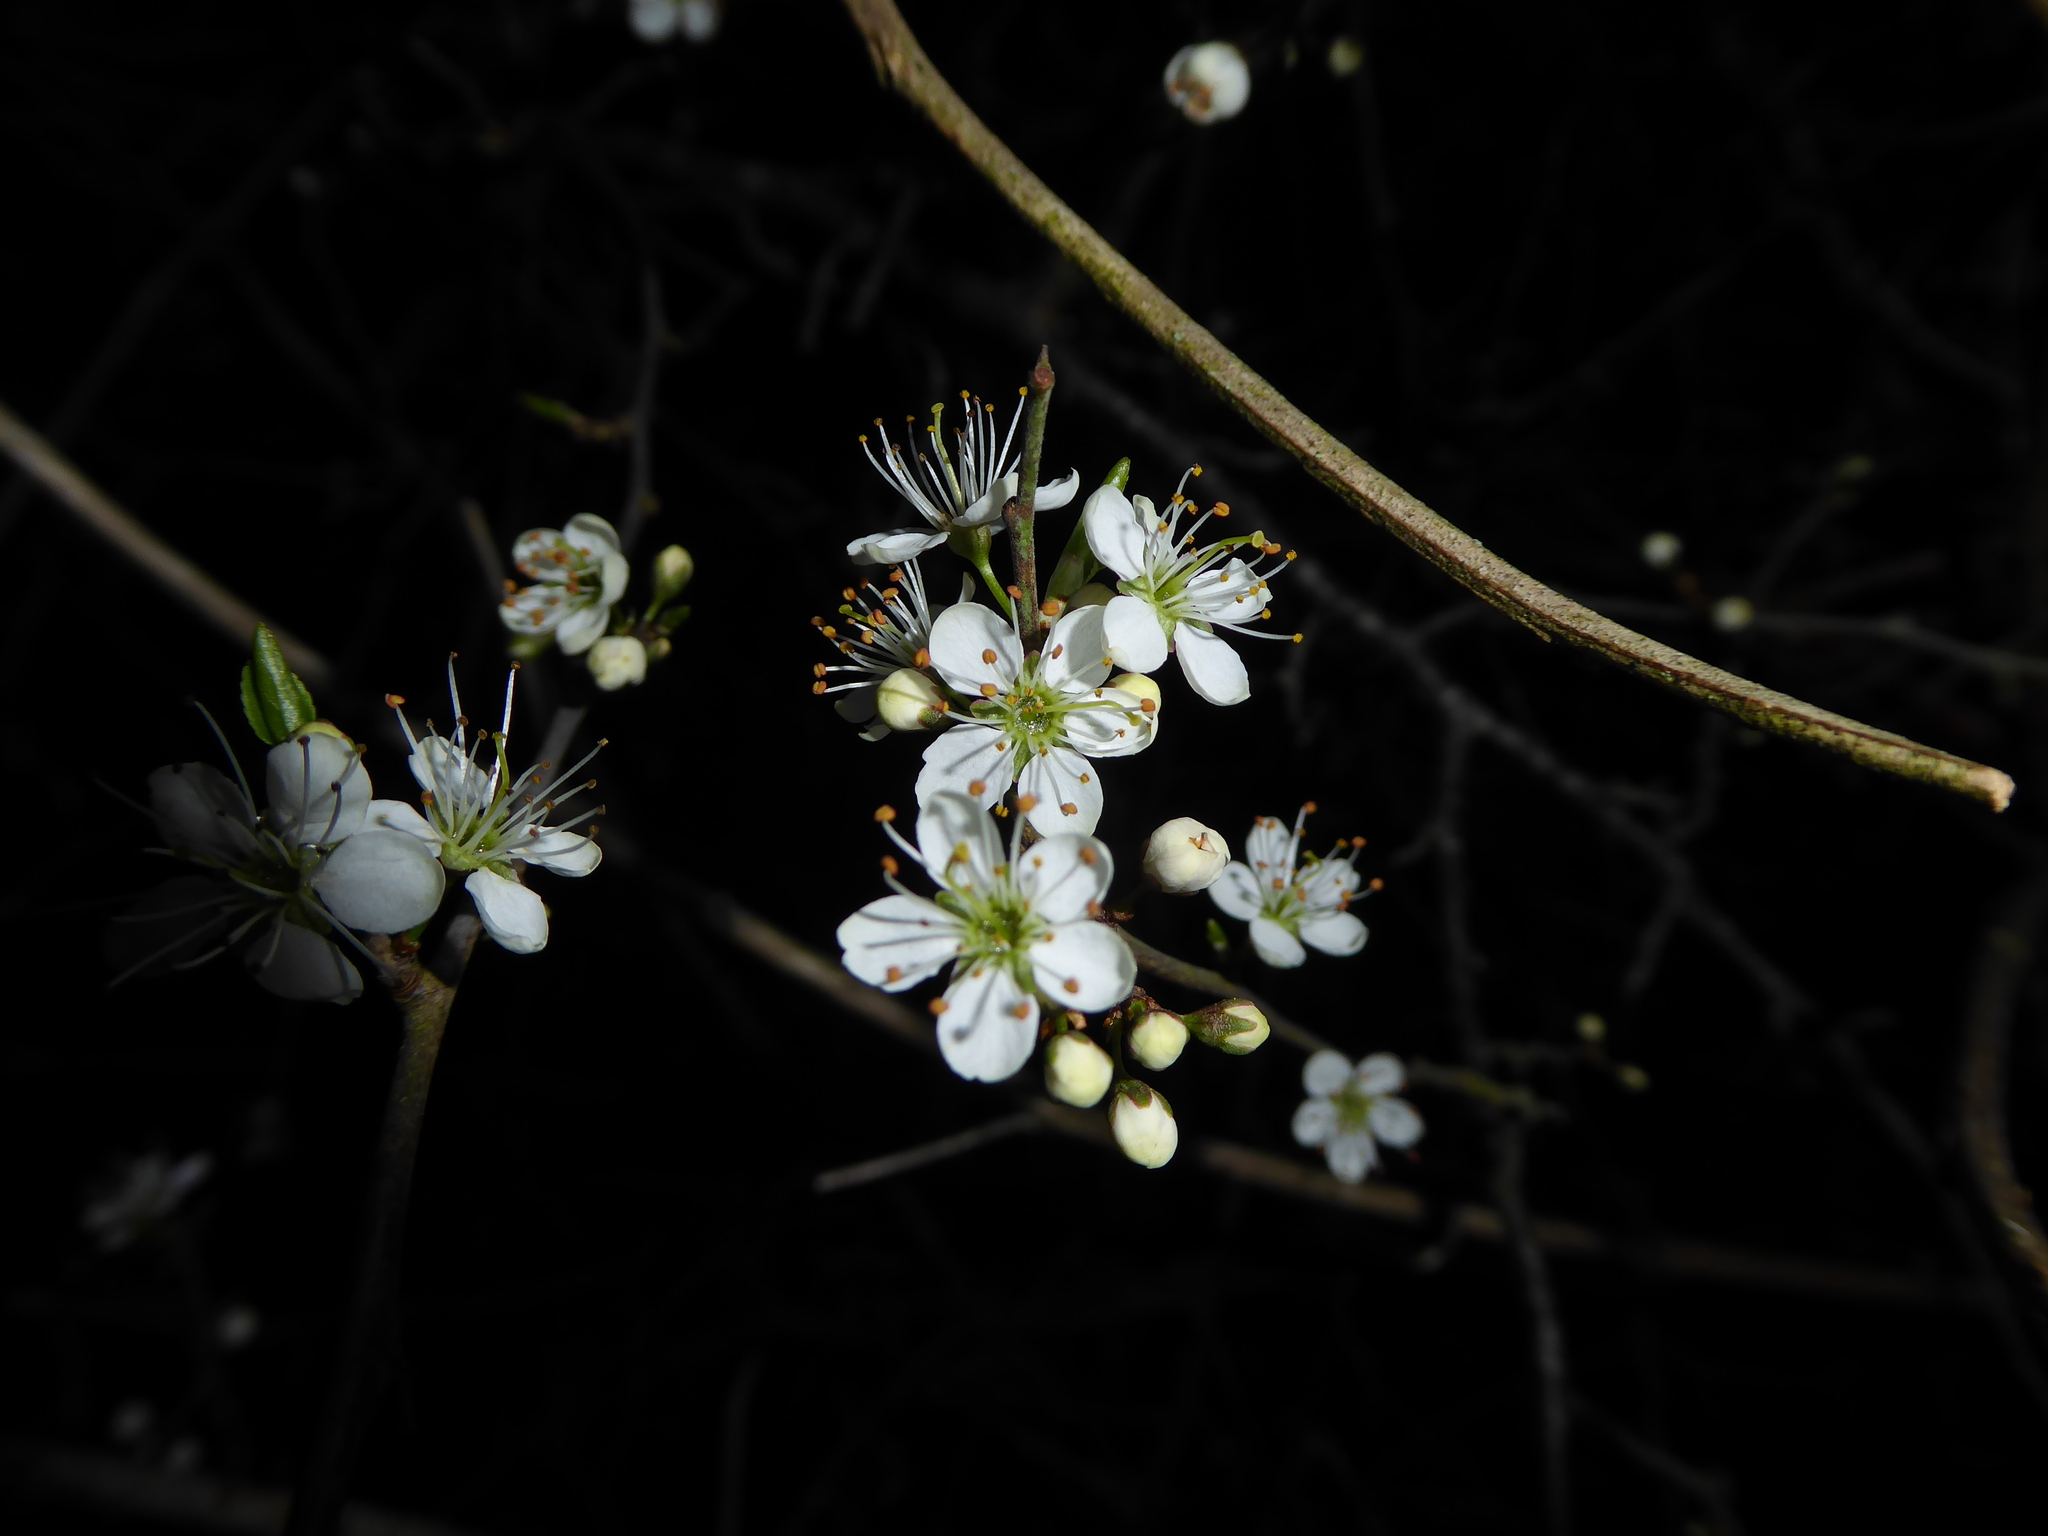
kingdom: Plantae
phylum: Tracheophyta
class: Magnoliopsida
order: Rosales
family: Rosaceae
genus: Prunus
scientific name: Prunus spinosa
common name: Blackthorn
